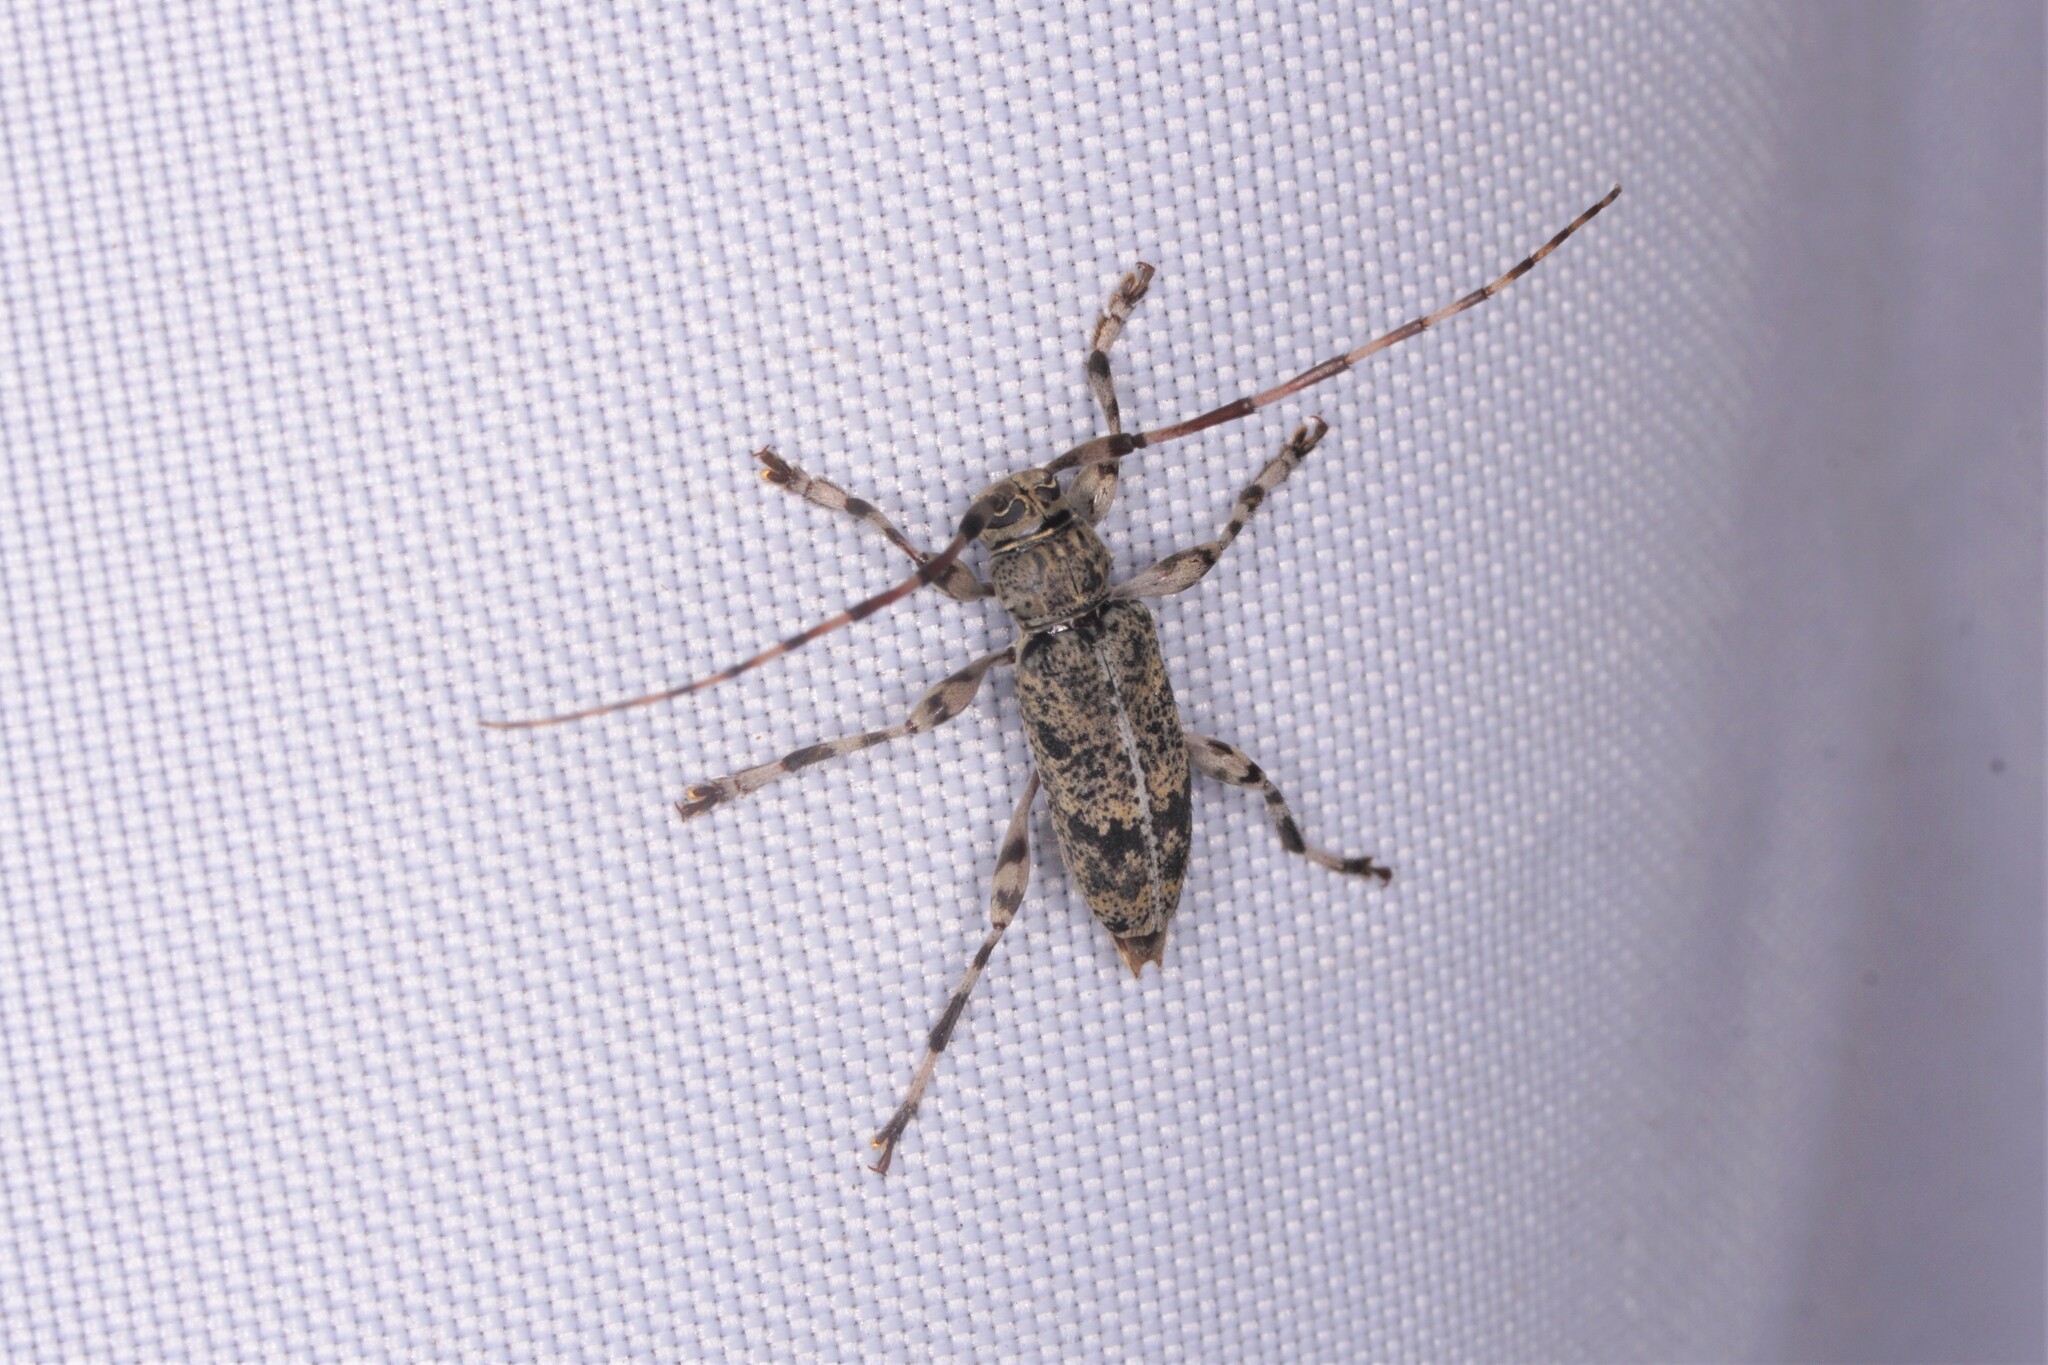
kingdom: Animalia
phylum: Arthropoda
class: Insecta
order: Coleoptera
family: Cerambycidae
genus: Graphisurus
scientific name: Graphisurus fasciatus
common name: Banded graphisurus
